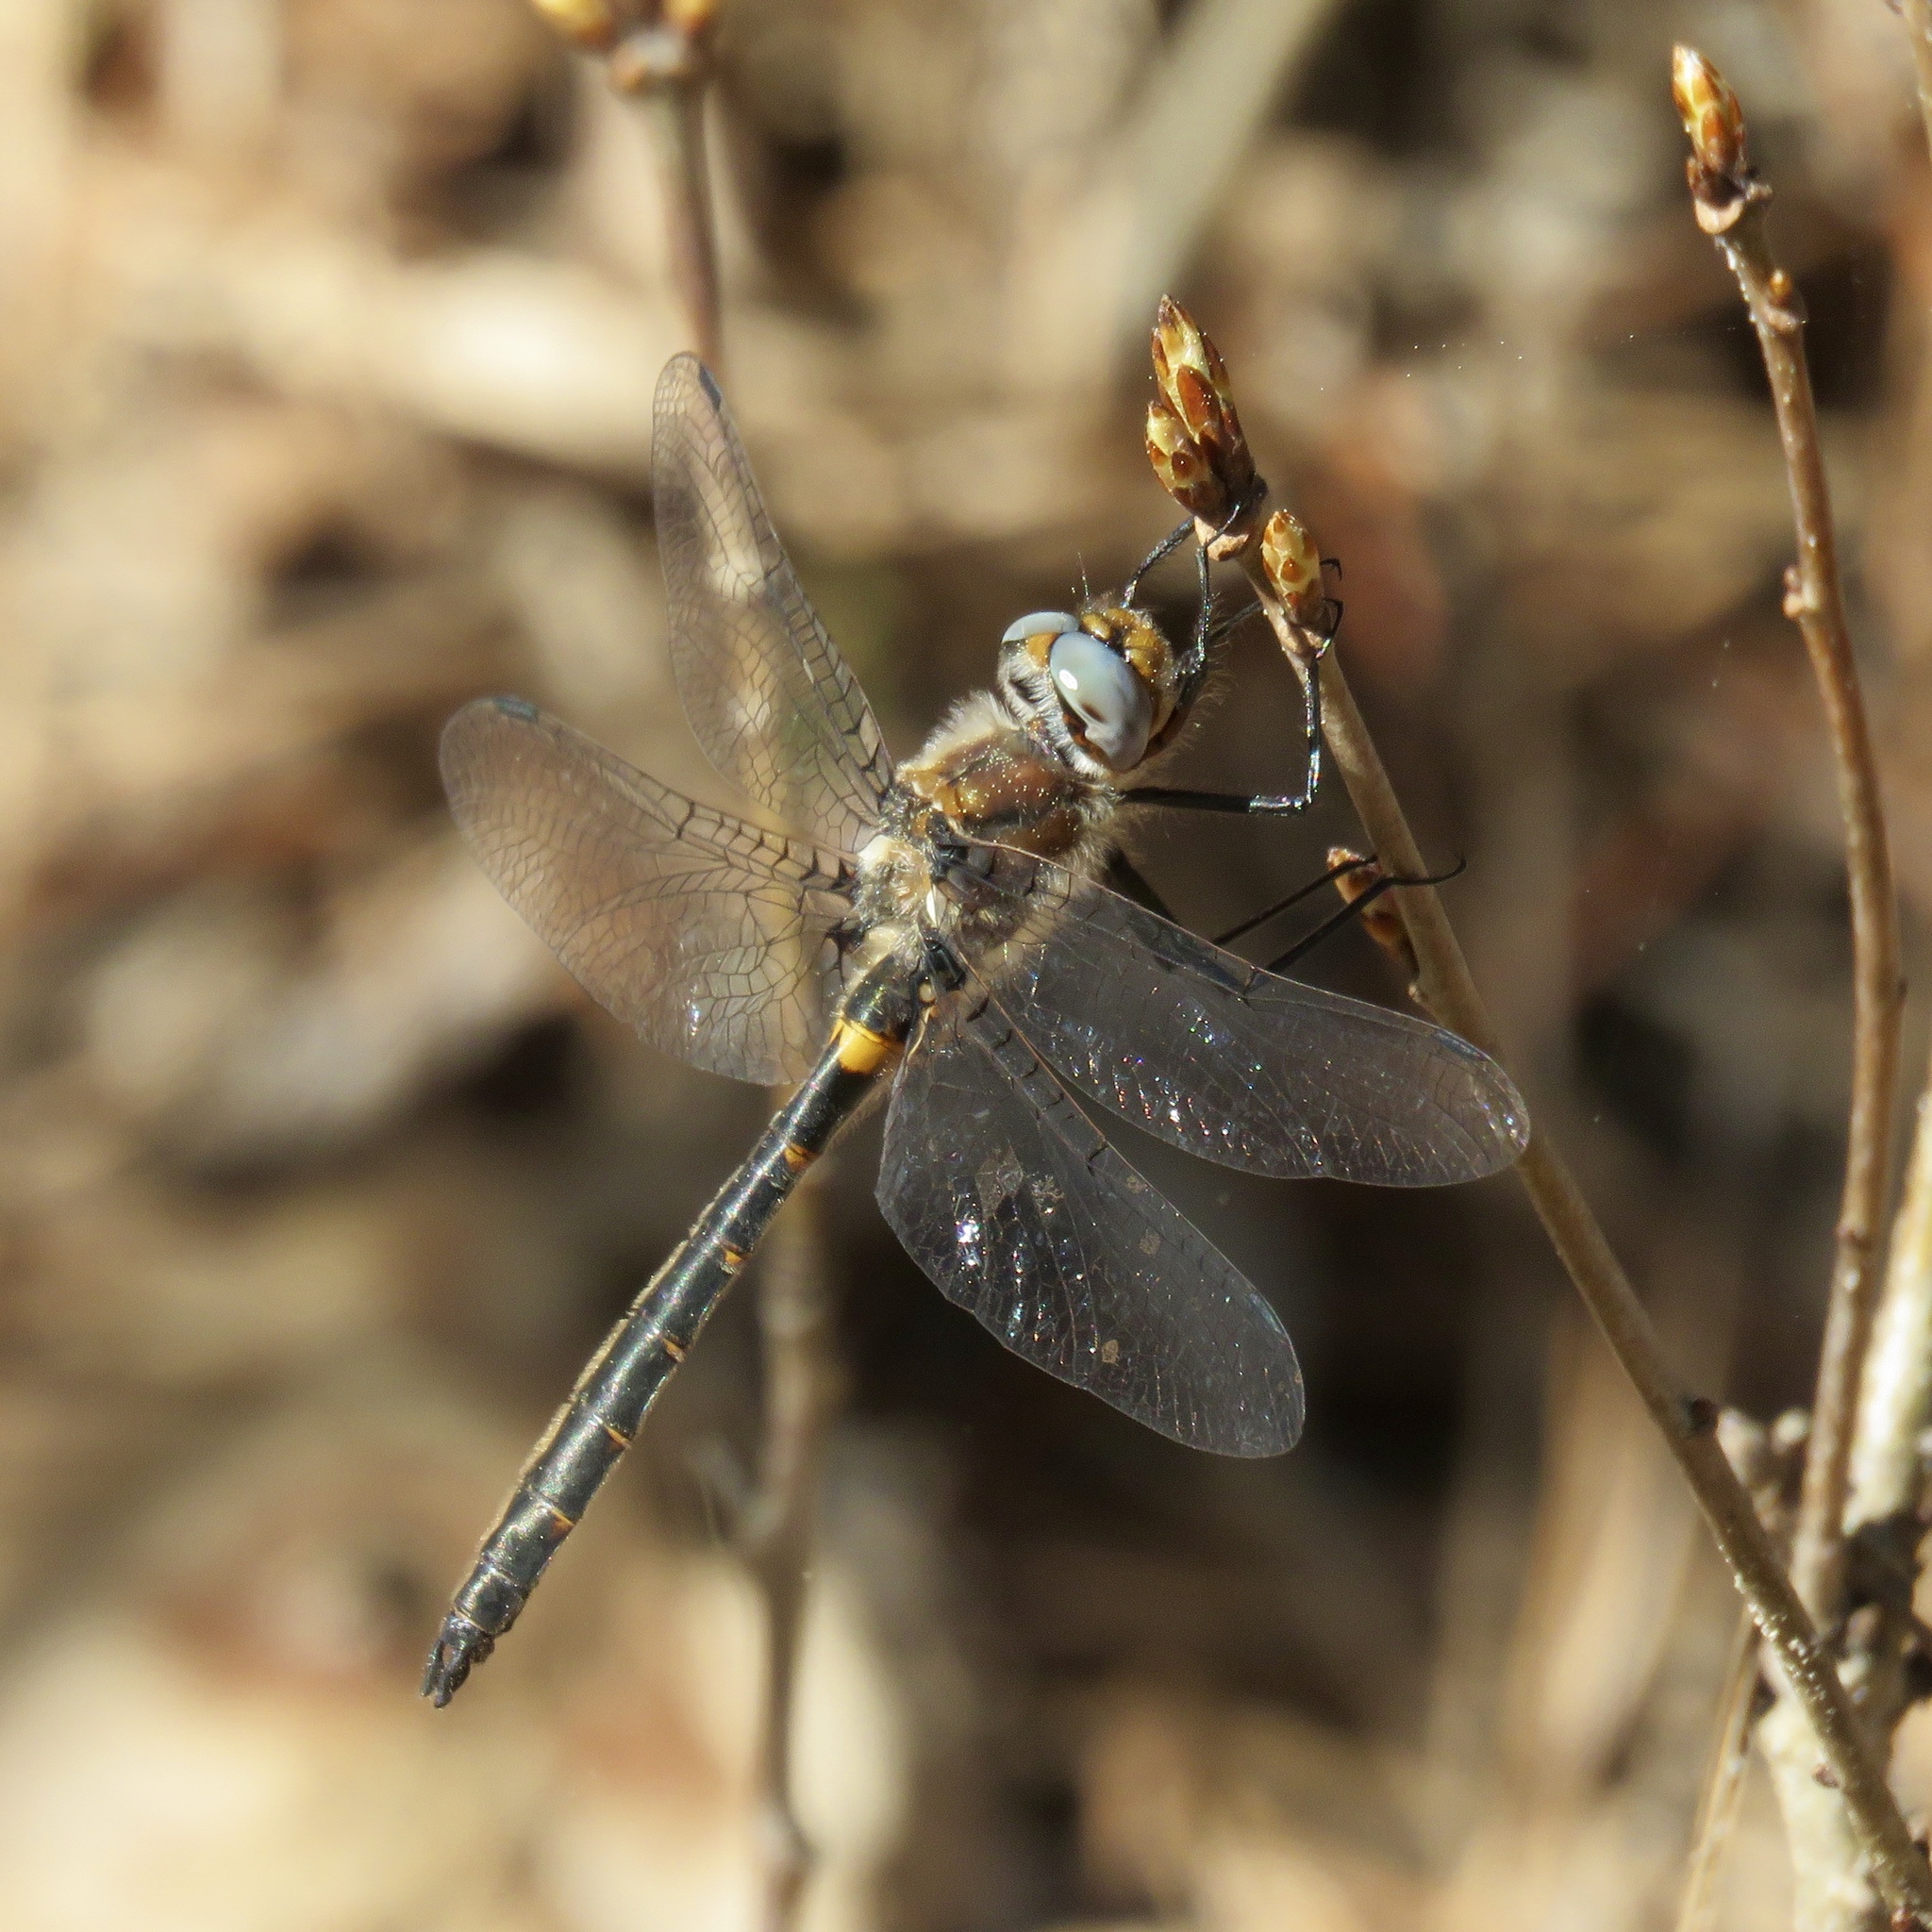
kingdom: Animalia
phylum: Arthropoda
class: Insecta
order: Odonata
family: Corduliidae
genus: Helocordulia
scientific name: Helocordulia selysii
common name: Selys's sundragon
